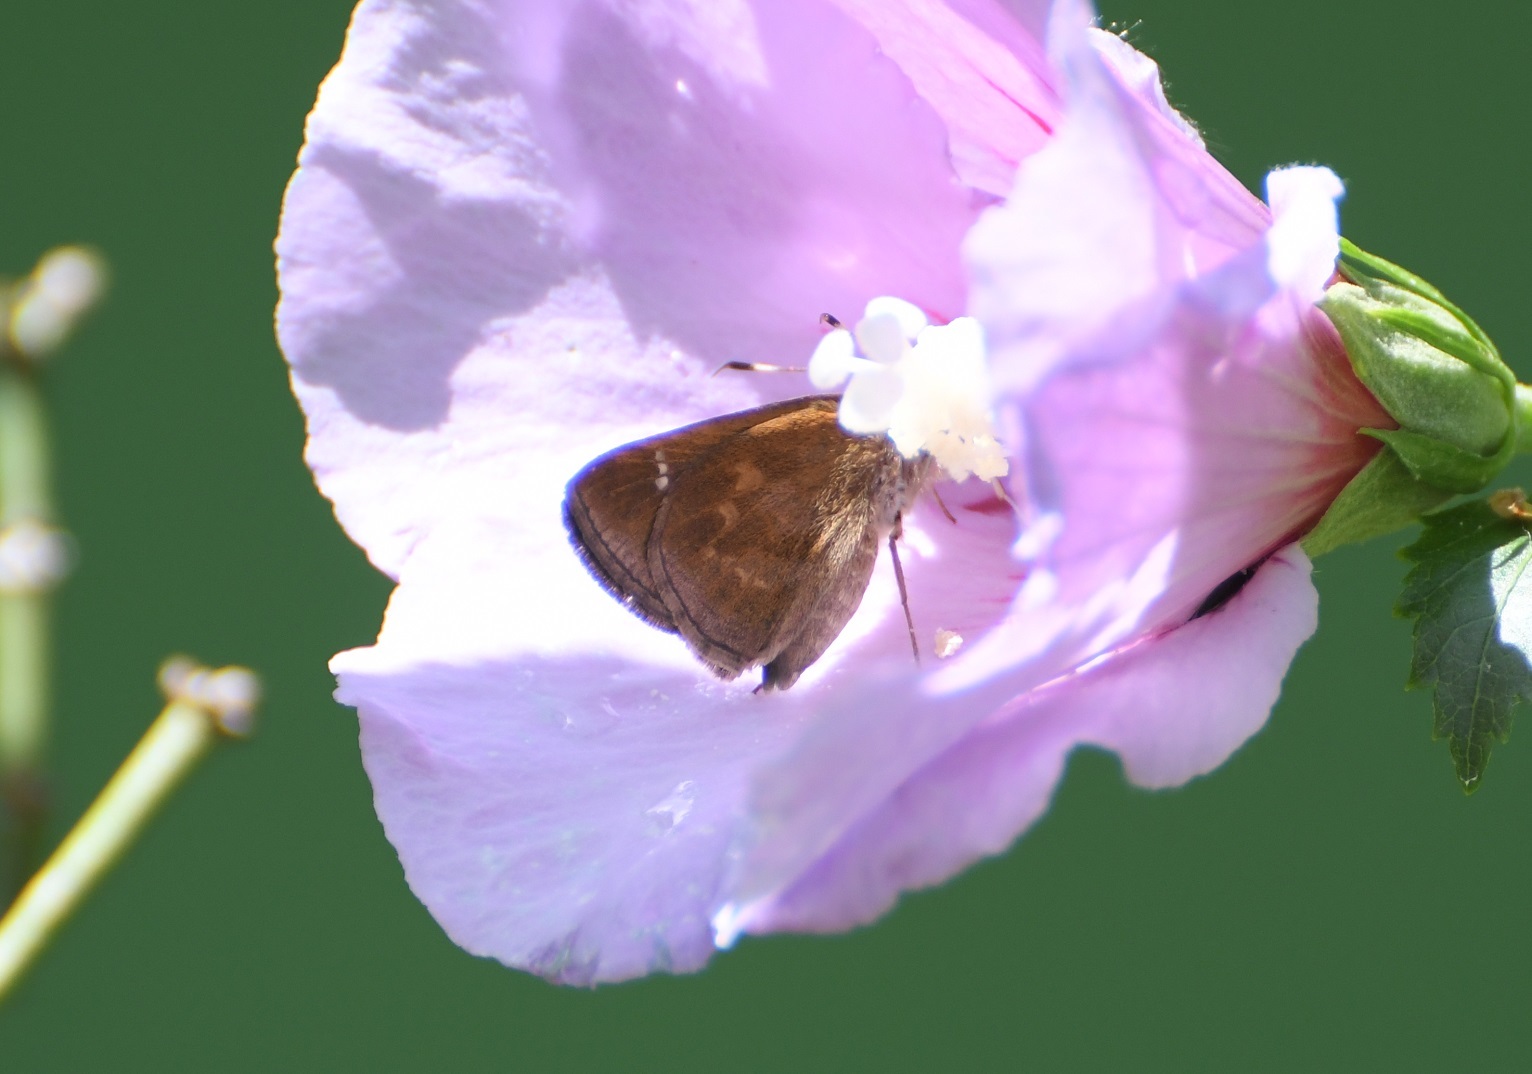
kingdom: Animalia
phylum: Arthropoda
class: Insecta
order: Lepidoptera
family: Hesperiidae
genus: Cymaenes
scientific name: Cymaenes
